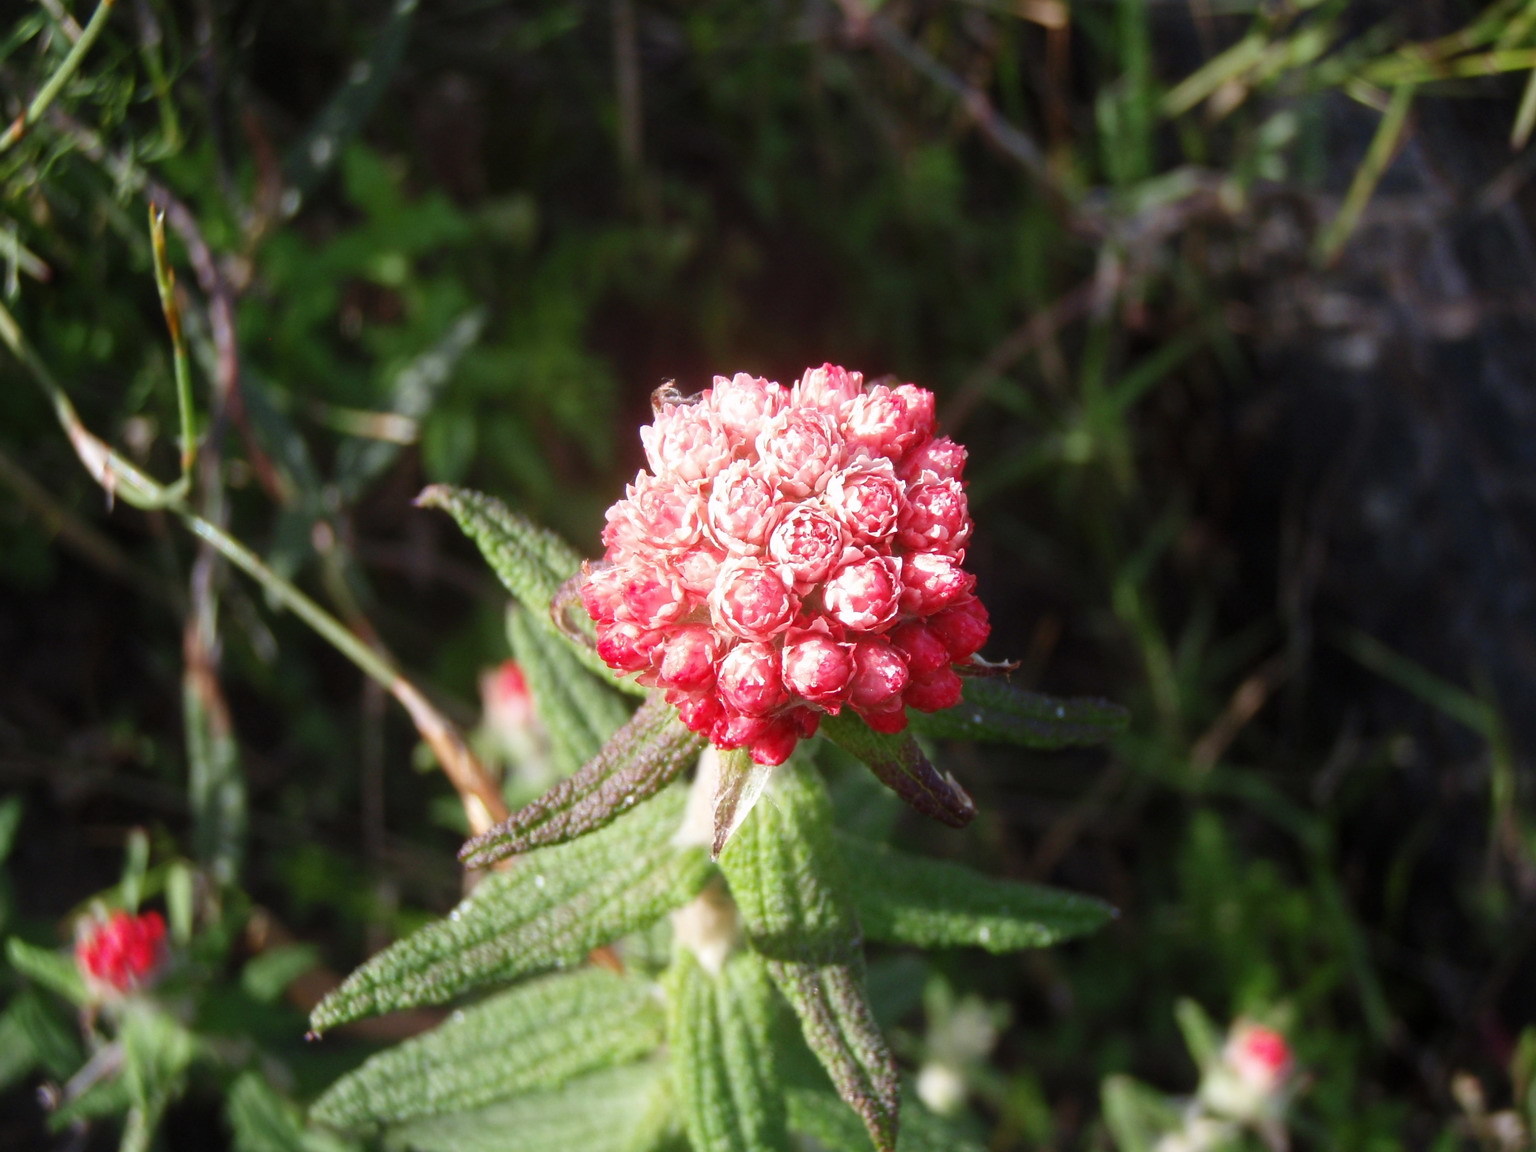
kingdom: Plantae
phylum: Tracheophyta
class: Magnoliopsida
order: Asterales
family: Asteraceae
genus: Helichrysum
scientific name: Helichrysum felinum
